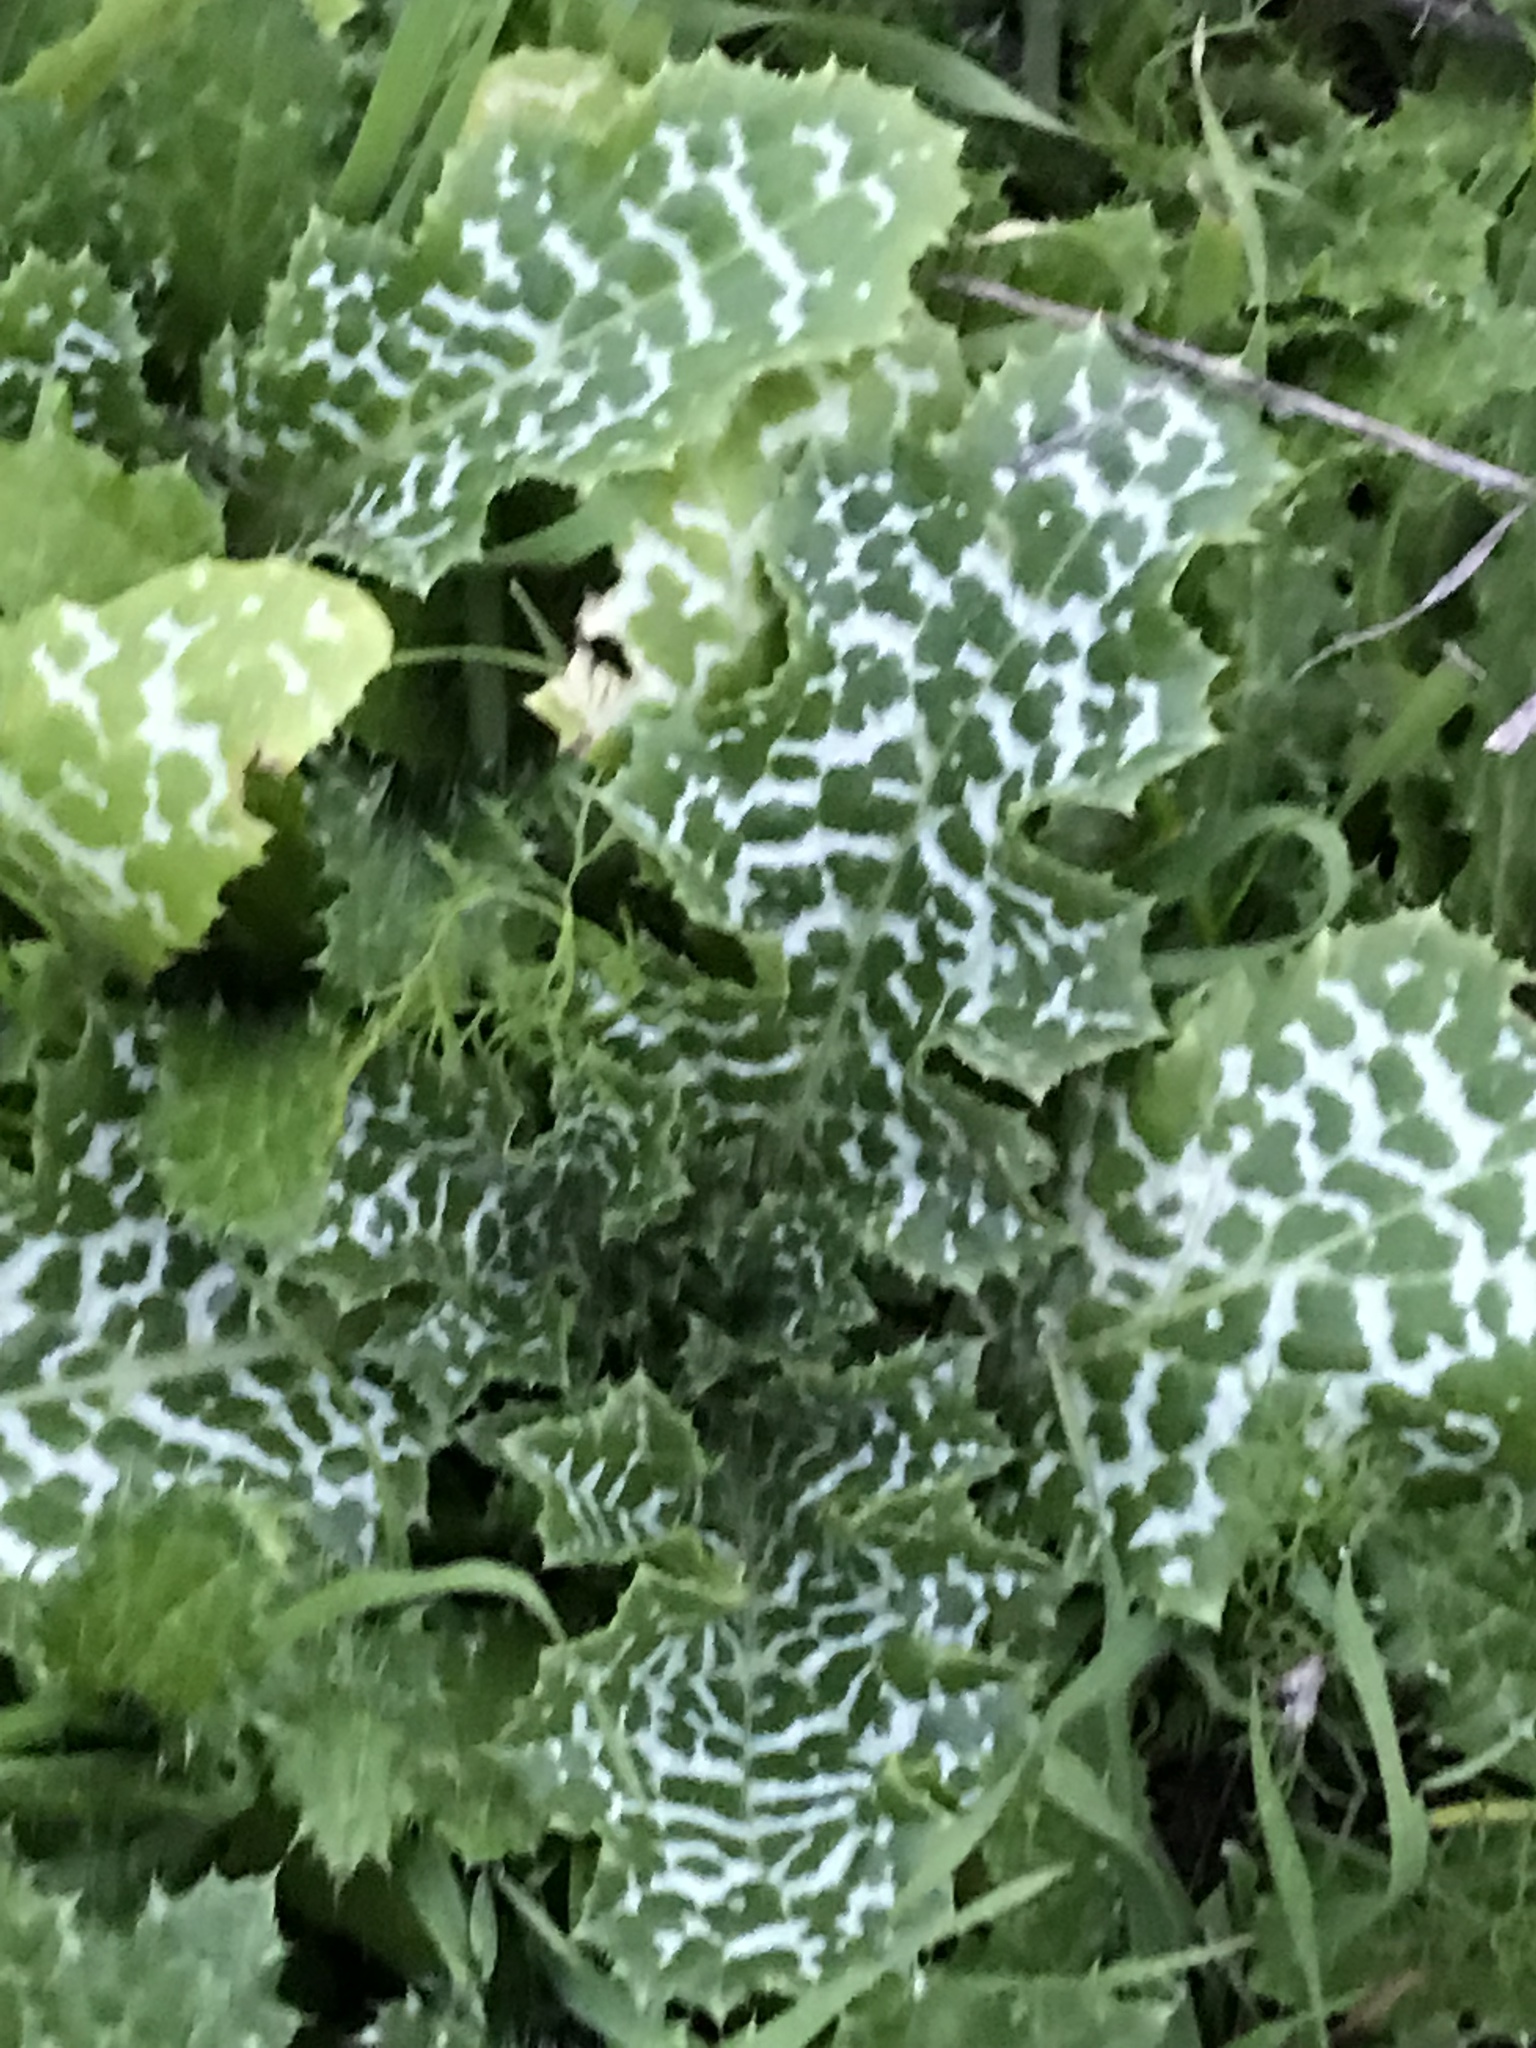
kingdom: Plantae
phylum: Tracheophyta
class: Magnoliopsida
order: Asterales
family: Asteraceae
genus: Silybum
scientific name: Silybum marianum
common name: Milk thistle
